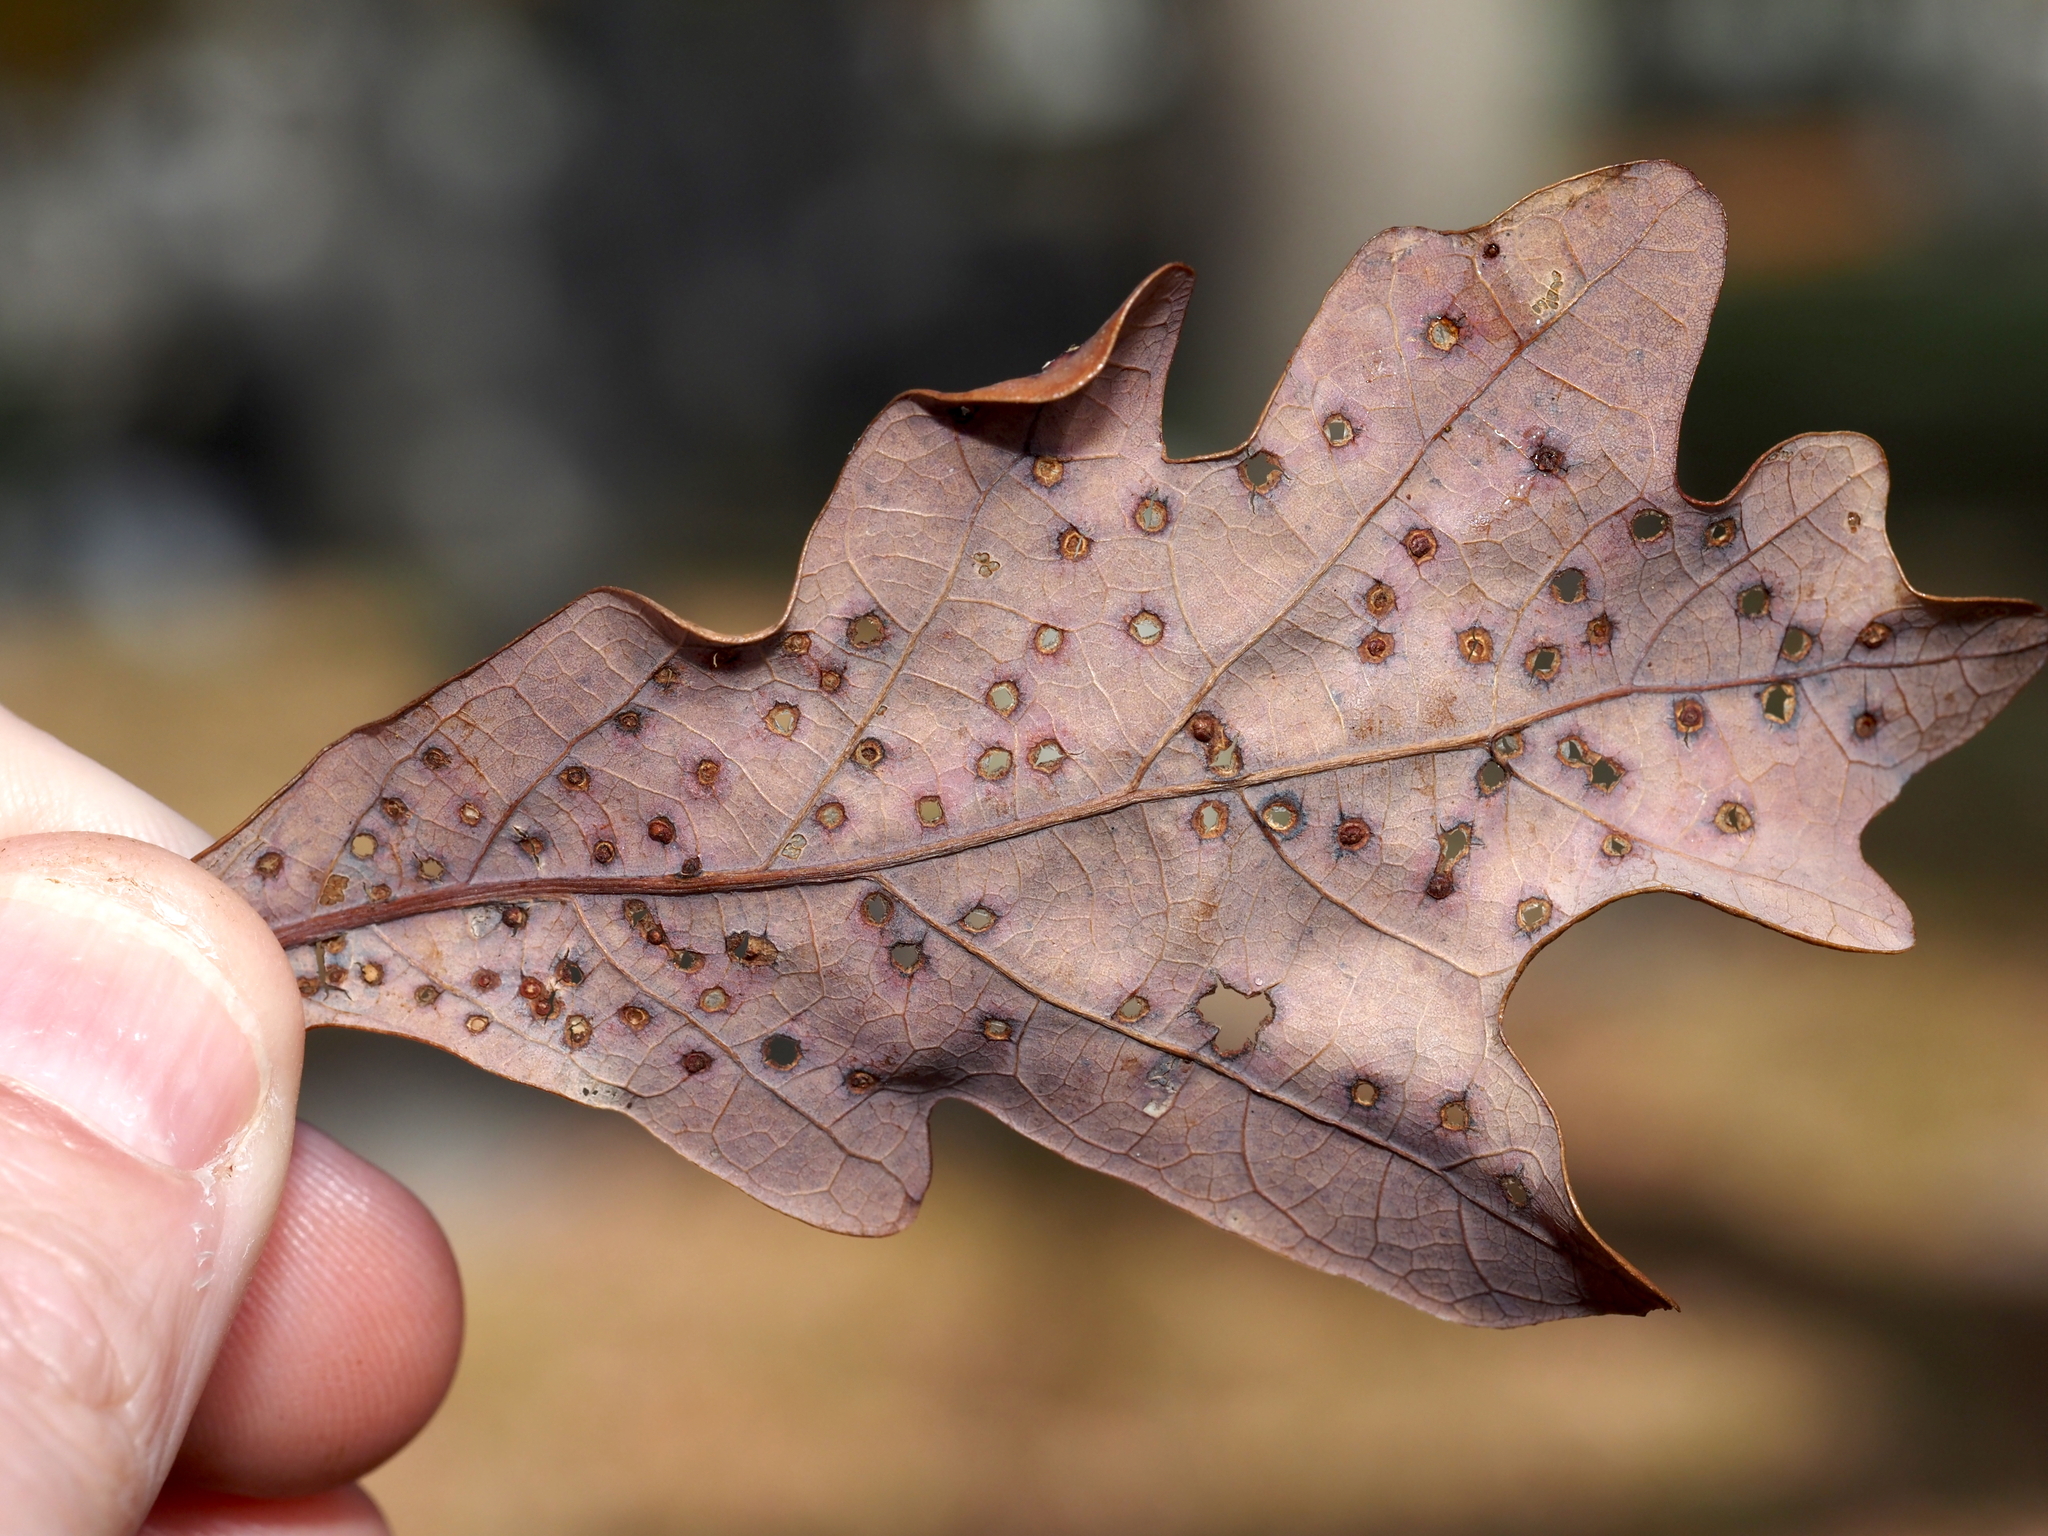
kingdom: Animalia
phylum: Arthropoda
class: Insecta
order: Hymenoptera
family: Cynipidae
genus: Neuroterus
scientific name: Neuroterus
